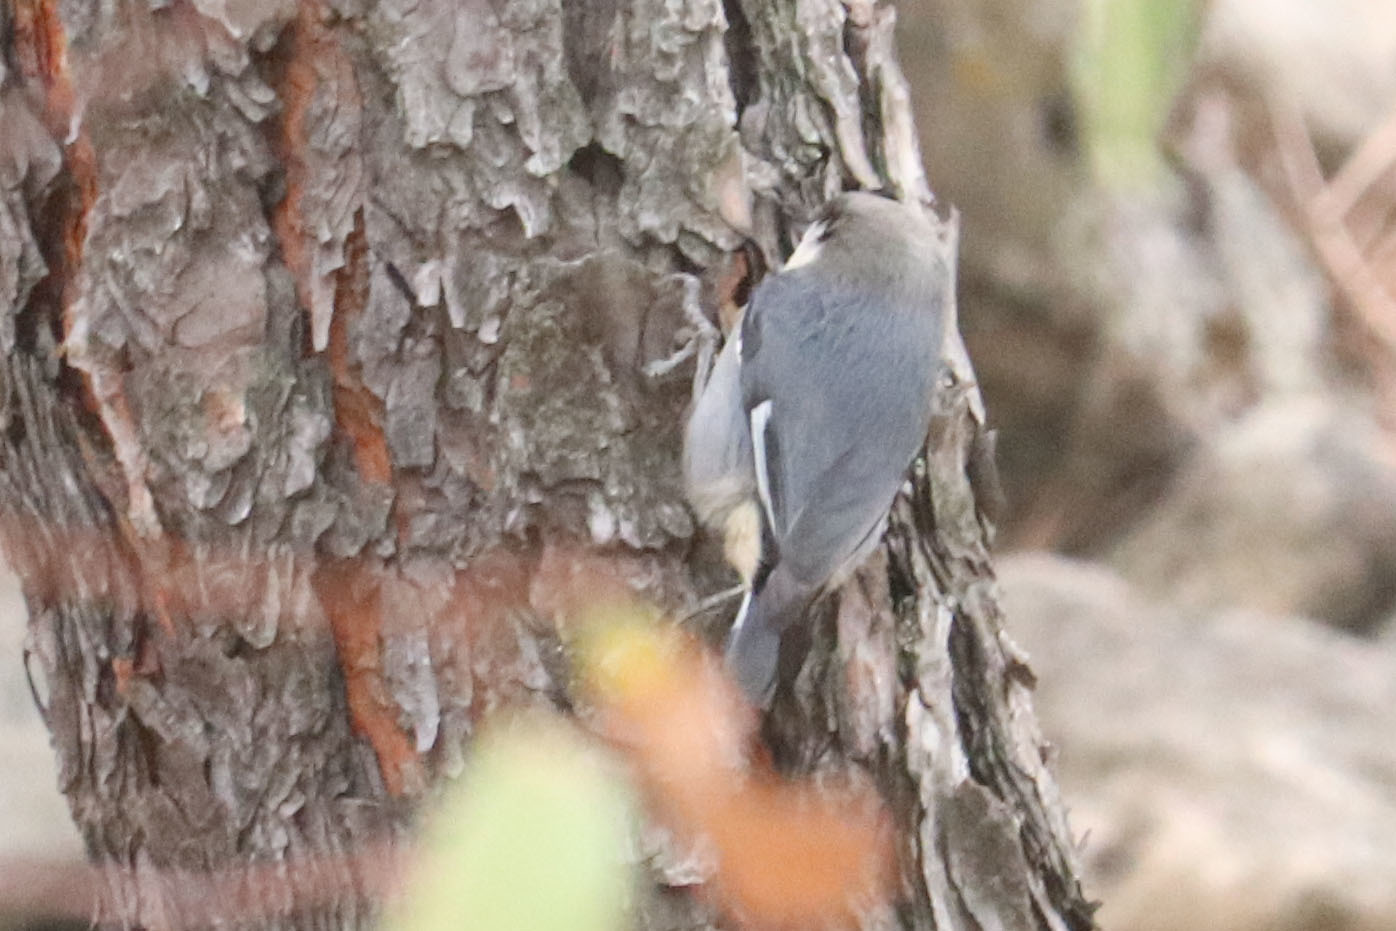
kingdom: Animalia
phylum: Chordata
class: Aves
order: Passeriformes
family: Sittidae
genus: Sitta
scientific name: Sitta pygmaea
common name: Pygmy nuthatch
